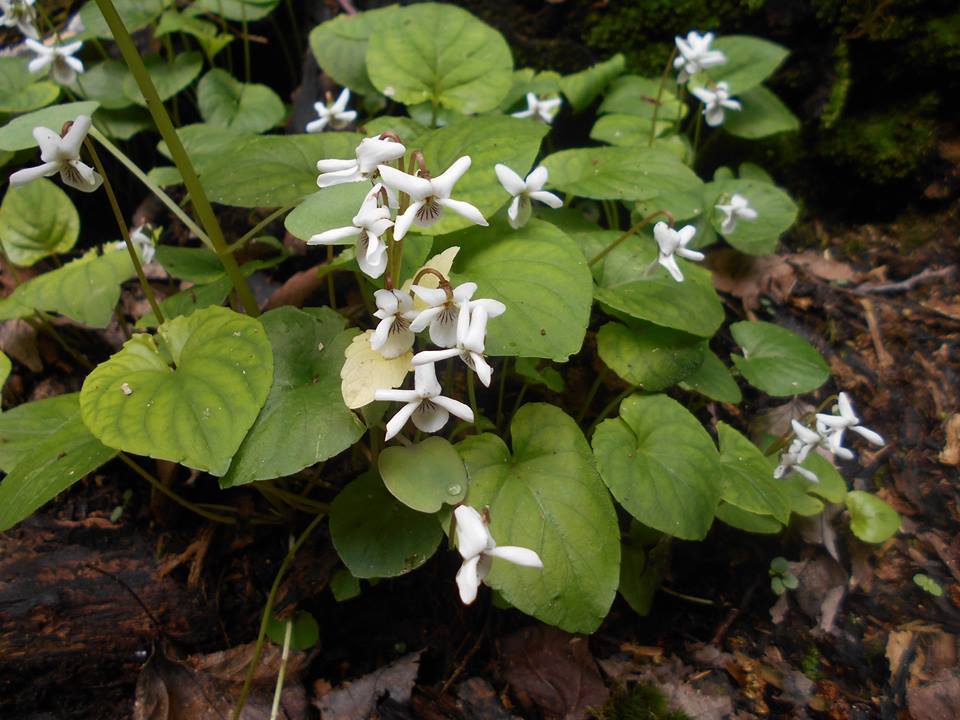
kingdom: Plantae
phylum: Tracheophyta
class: Magnoliopsida
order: Malpighiales
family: Violaceae
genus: Viola
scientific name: Viola blanda
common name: Sweet white violet
